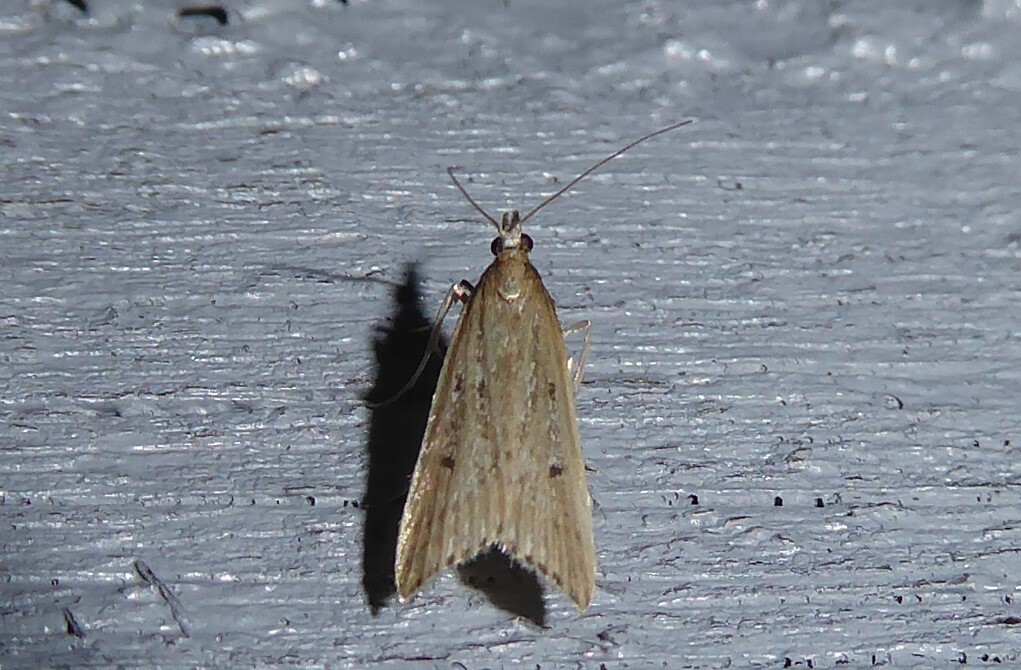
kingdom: Animalia
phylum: Arthropoda
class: Insecta
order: Lepidoptera
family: Crambidae
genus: Antiscopa
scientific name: Antiscopa elaphra
